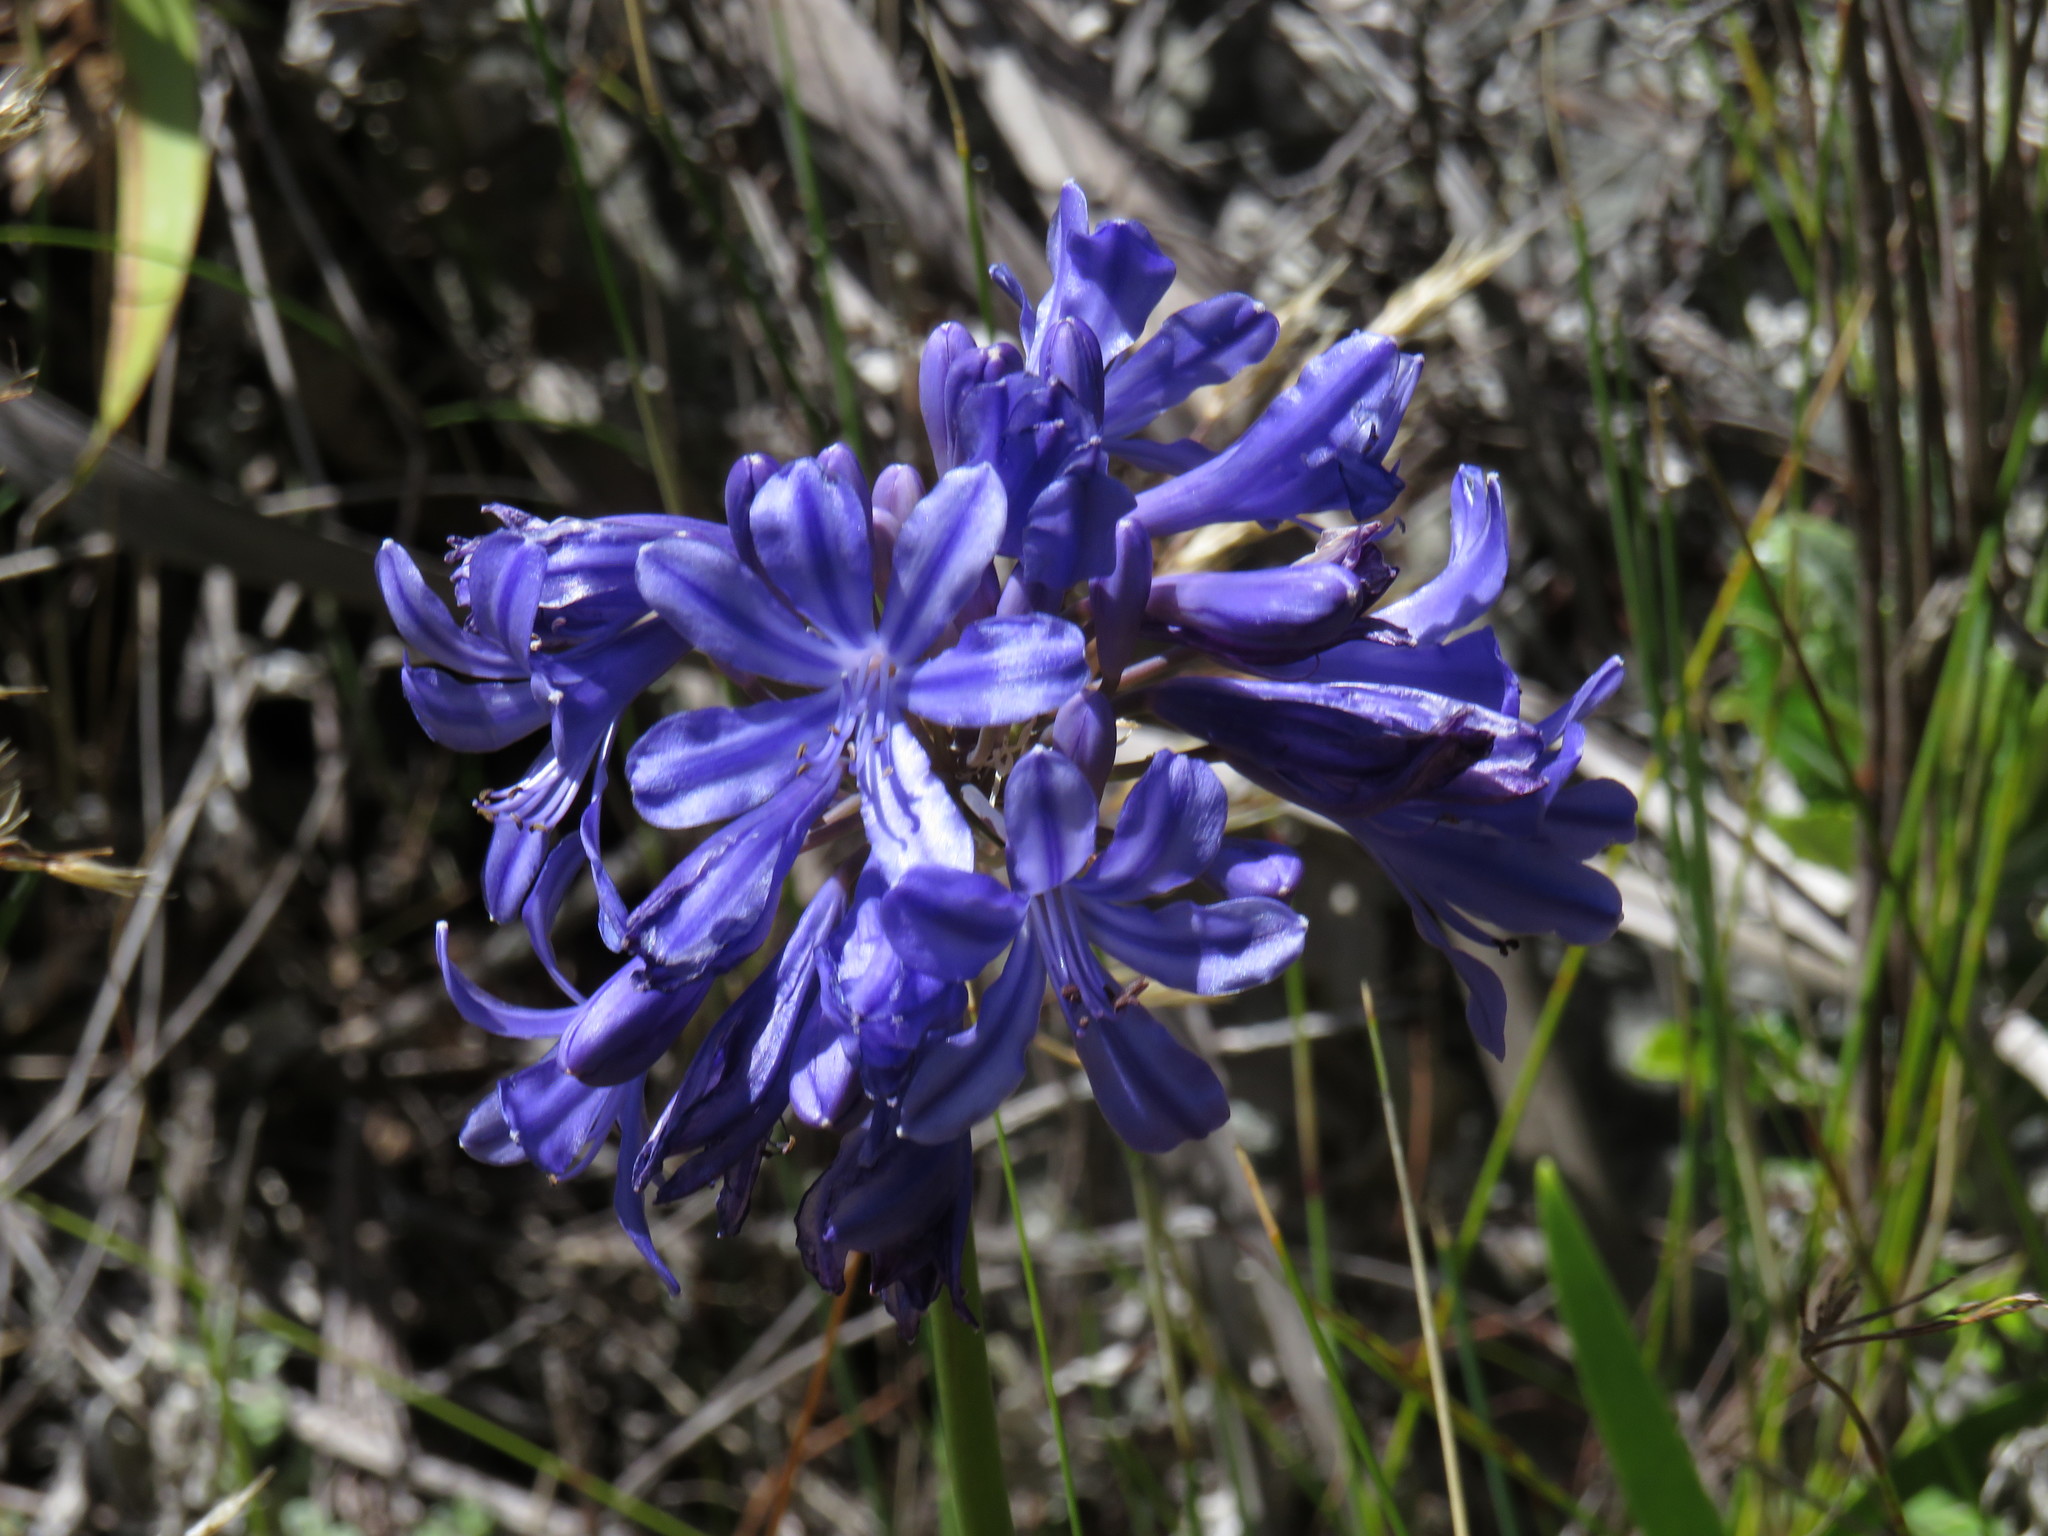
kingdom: Plantae
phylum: Tracheophyta
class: Liliopsida
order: Asparagales
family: Amaryllidaceae
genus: Agapanthus
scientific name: Agapanthus africanus
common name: Lily-of-the-nile
